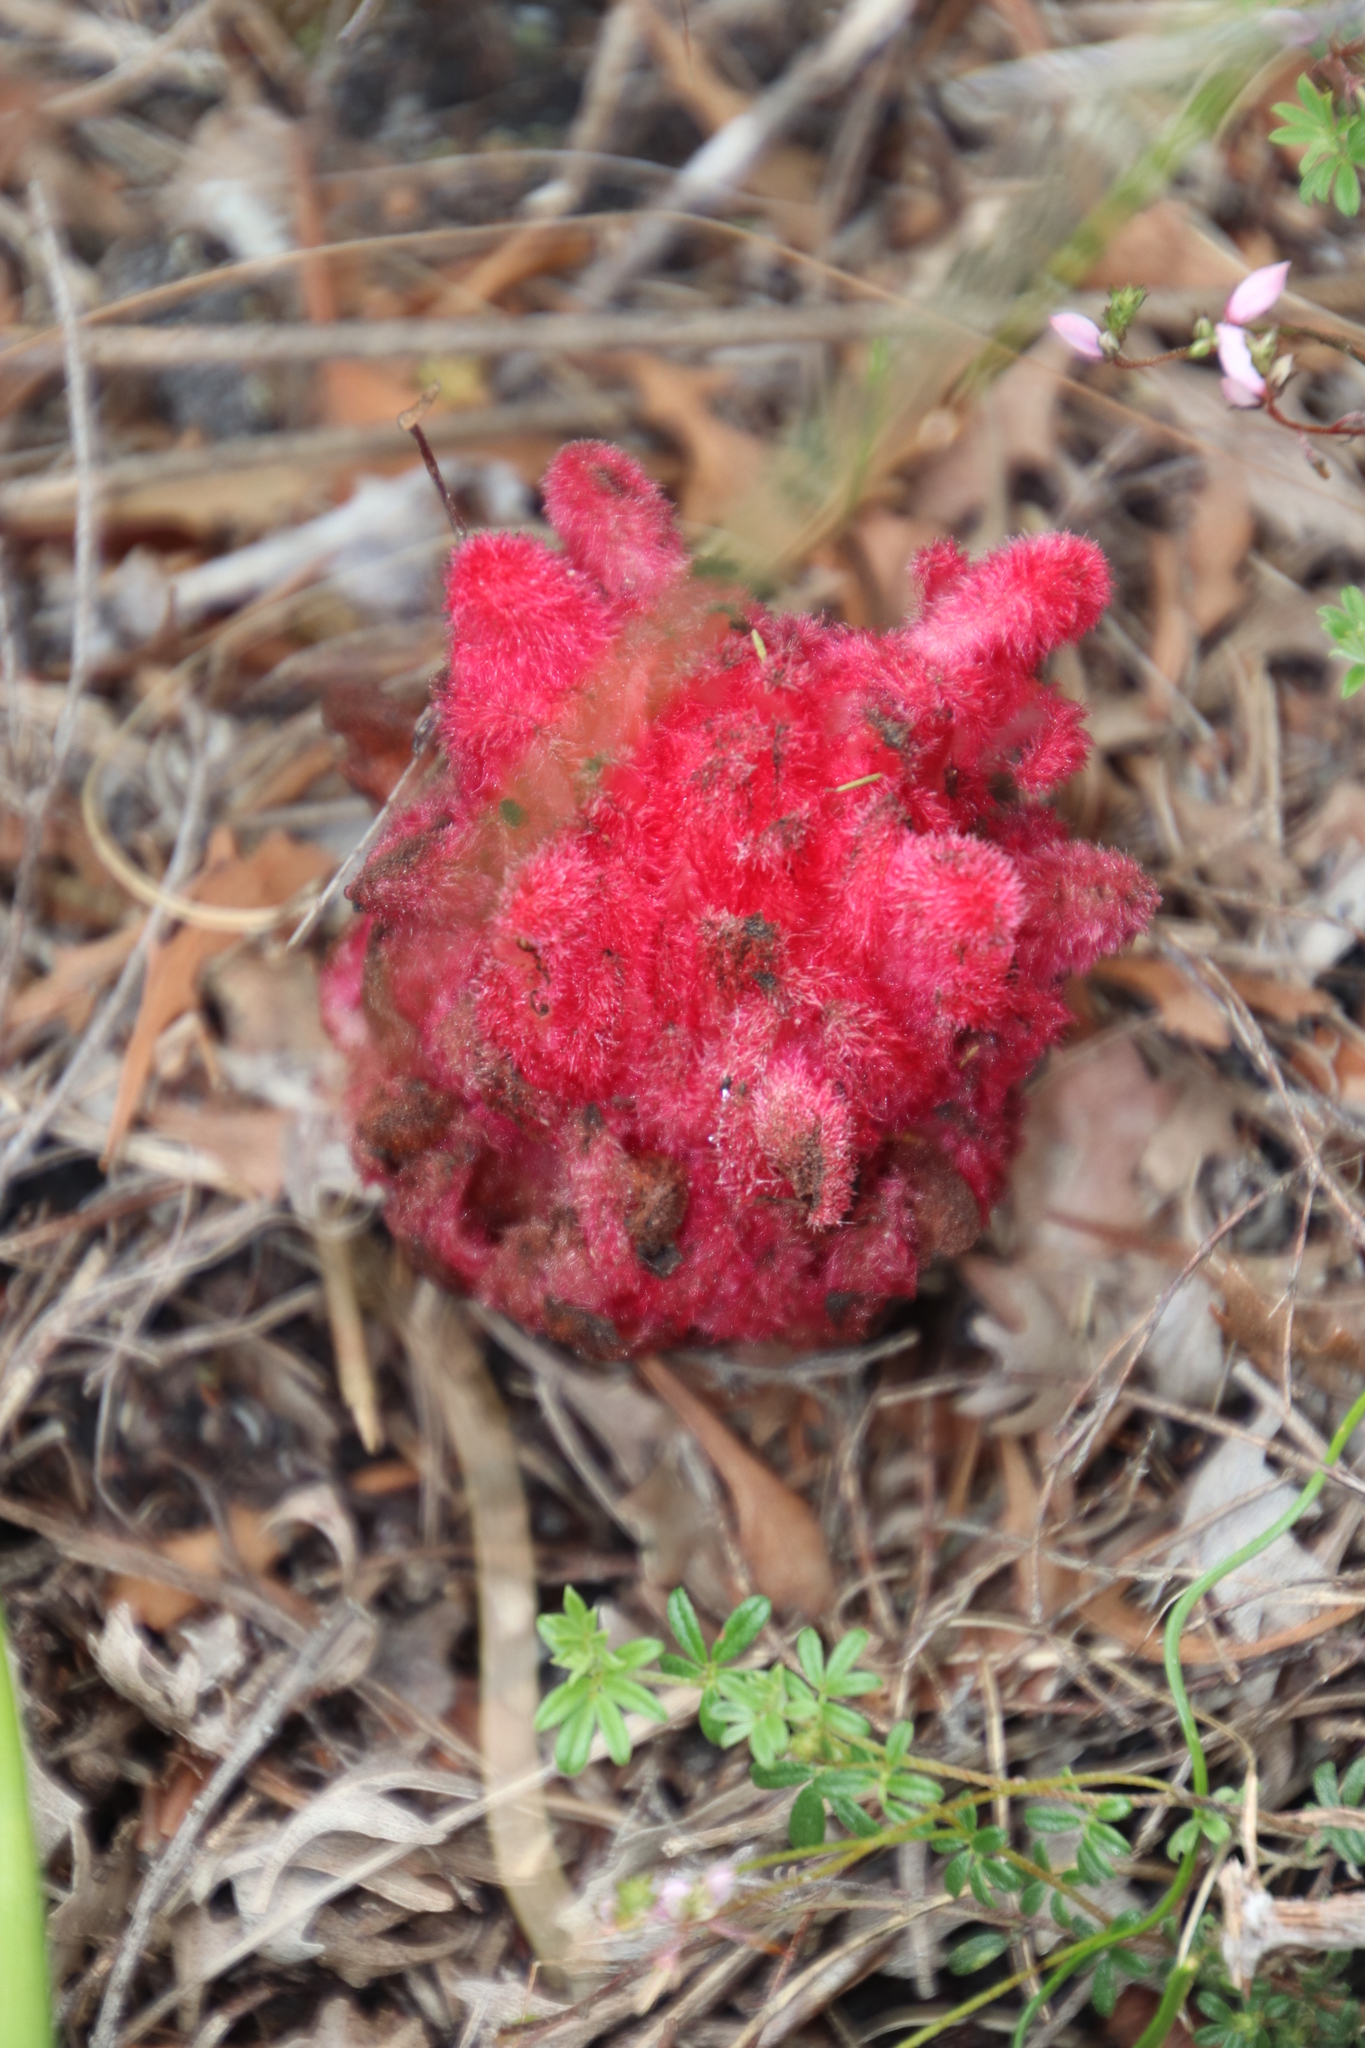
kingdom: Plantae
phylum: Tracheophyta
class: Magnoliopsida
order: Lamiales
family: Orobanchaceae
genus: Hyobanche
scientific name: Hyobanche sanguinea
